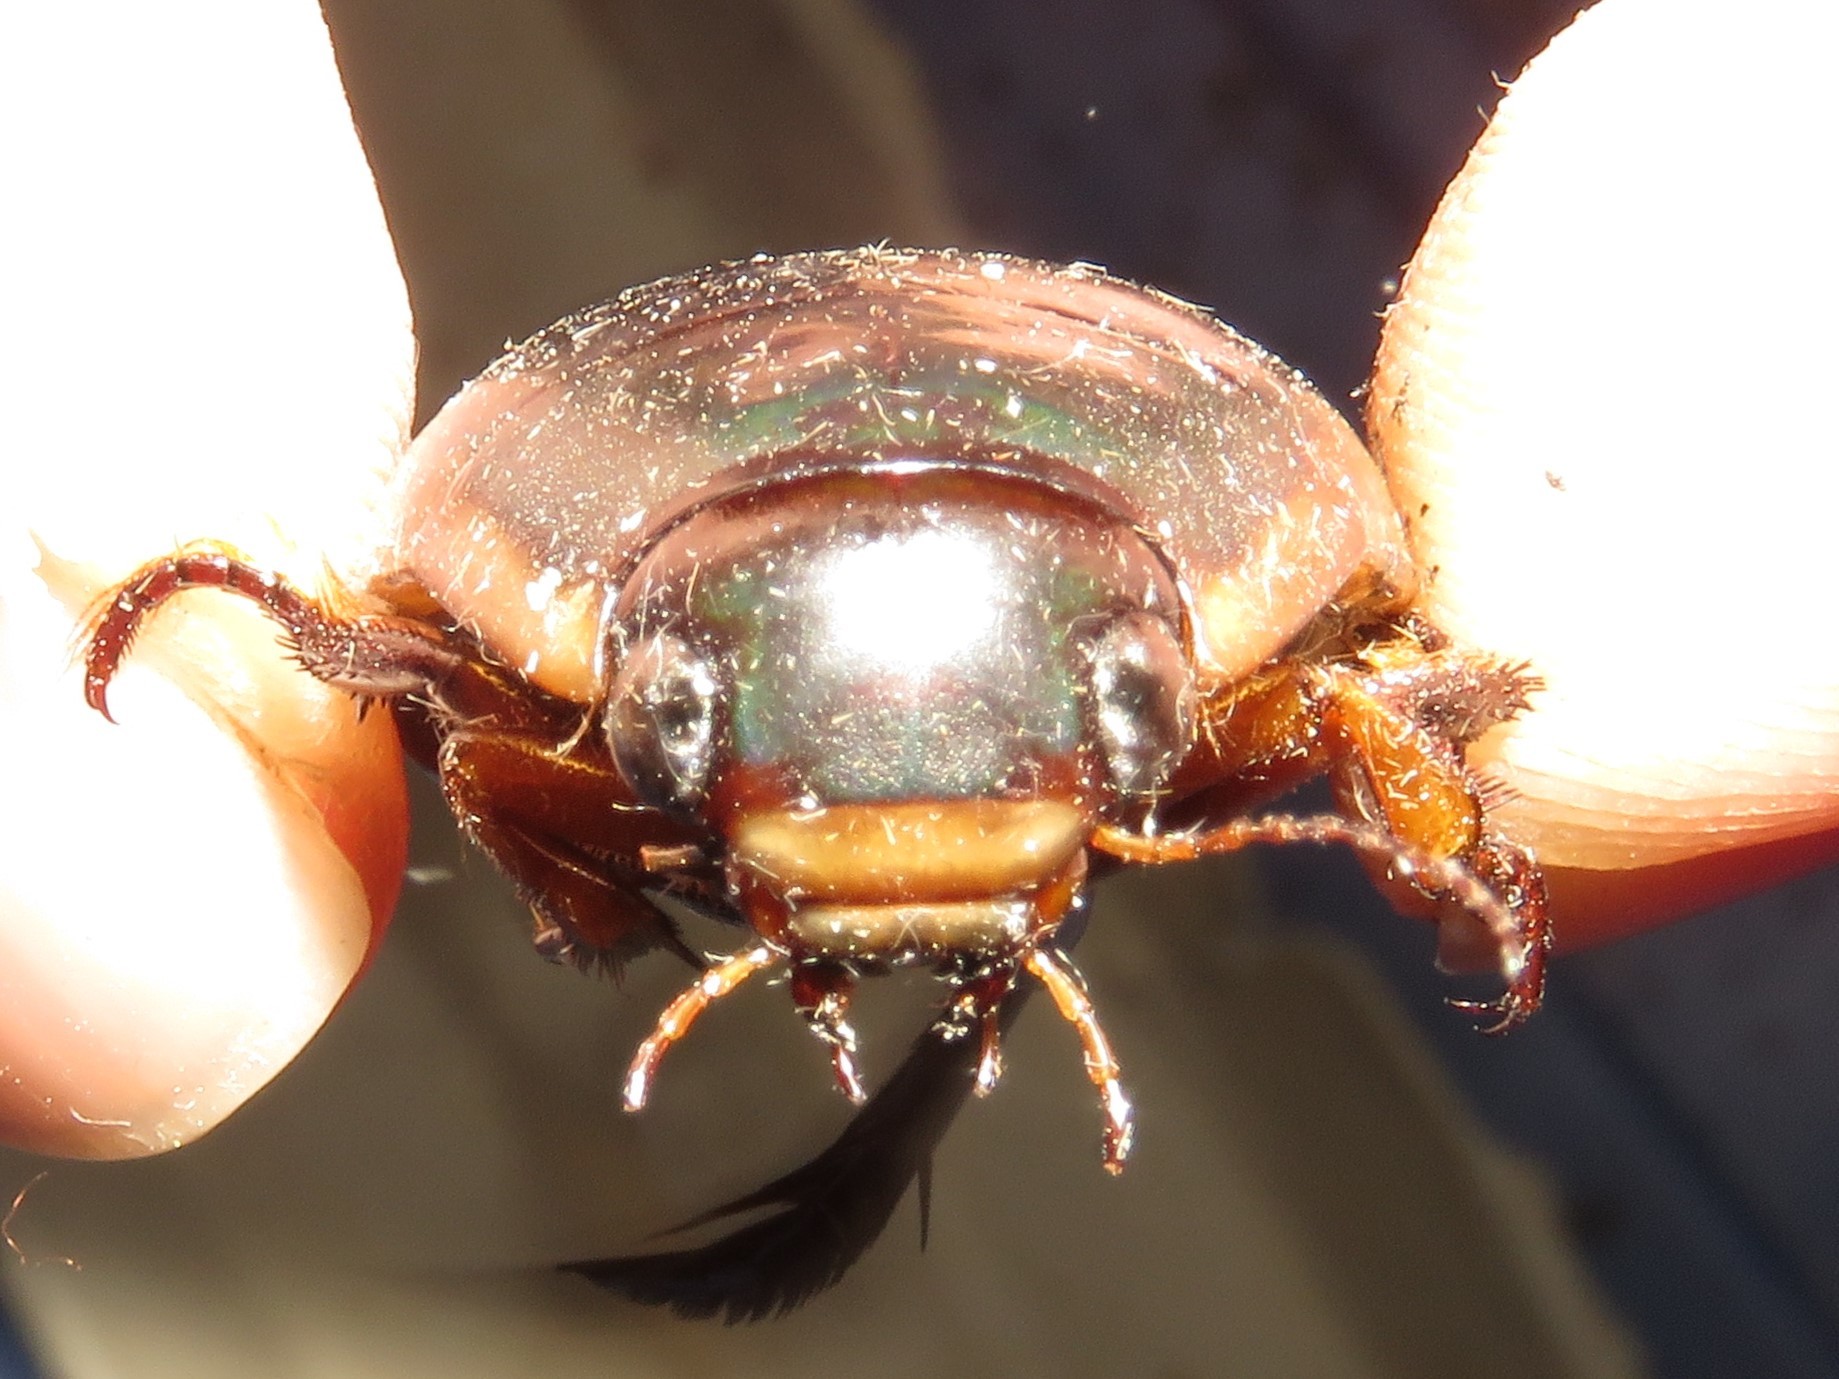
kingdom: Animalia
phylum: Arthropoda
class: Insecta
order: Coleoptera
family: Dytiscidae
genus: Dytiscus
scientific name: Dytiscus verticalis
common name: Vertical diving beetle
